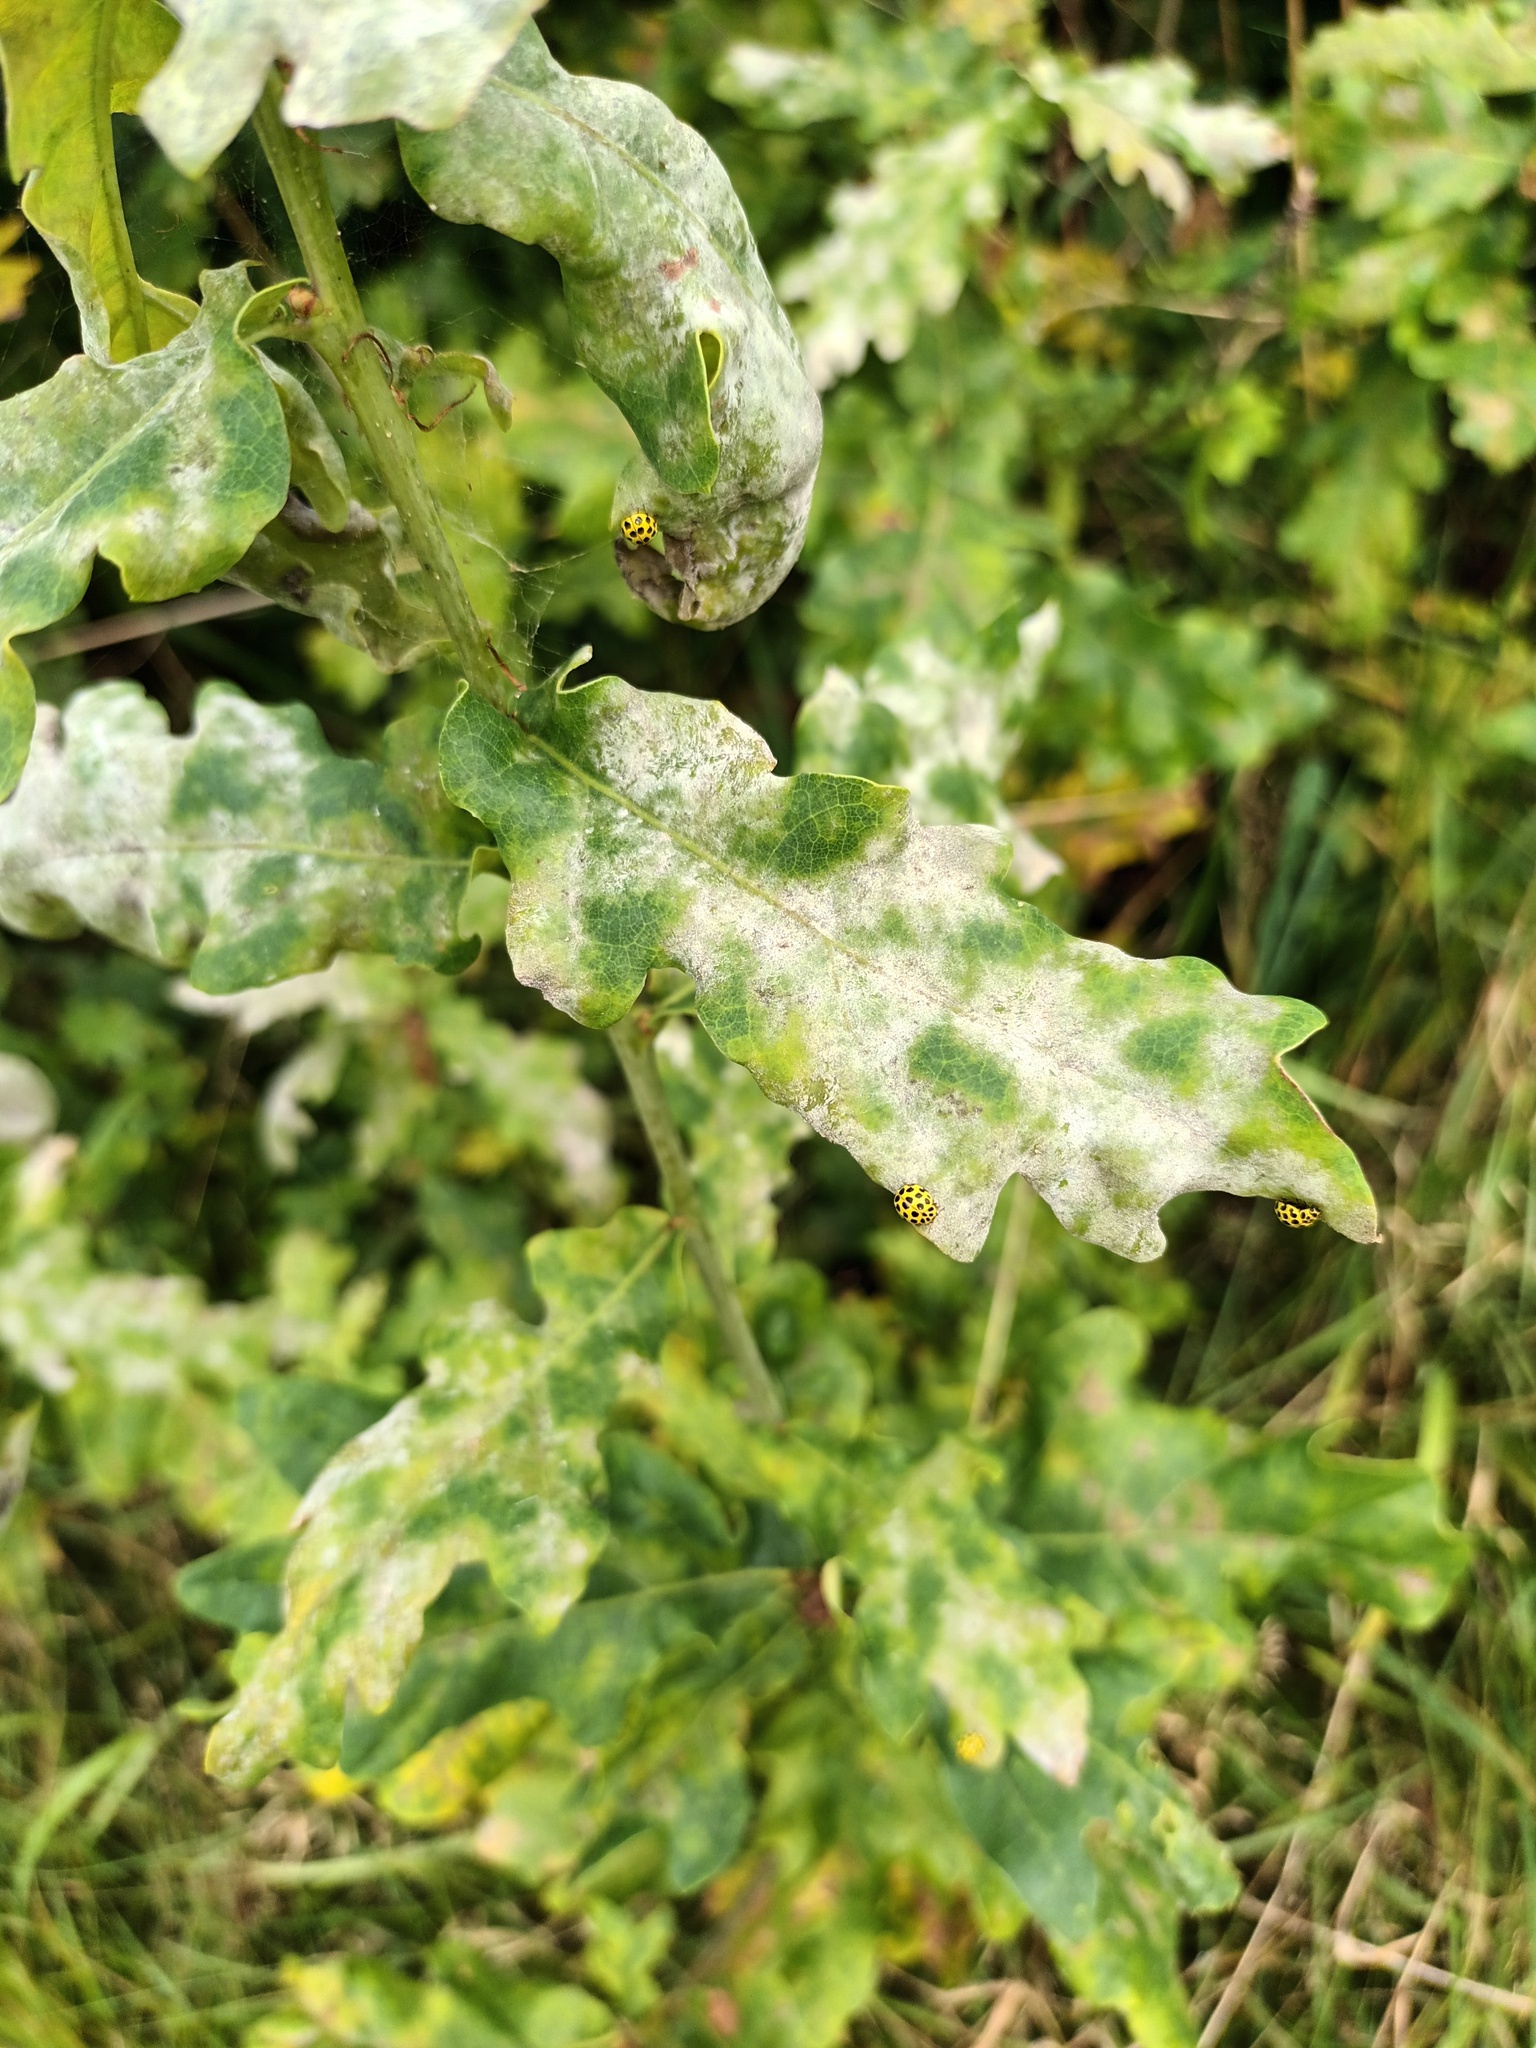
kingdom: Animalia
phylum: Arthropoda
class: Insecta
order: Coleoptera
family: Coccinellidae
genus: Psyllobora
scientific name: Psyllobora vigintiduopunctata
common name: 22-spot ladybird
